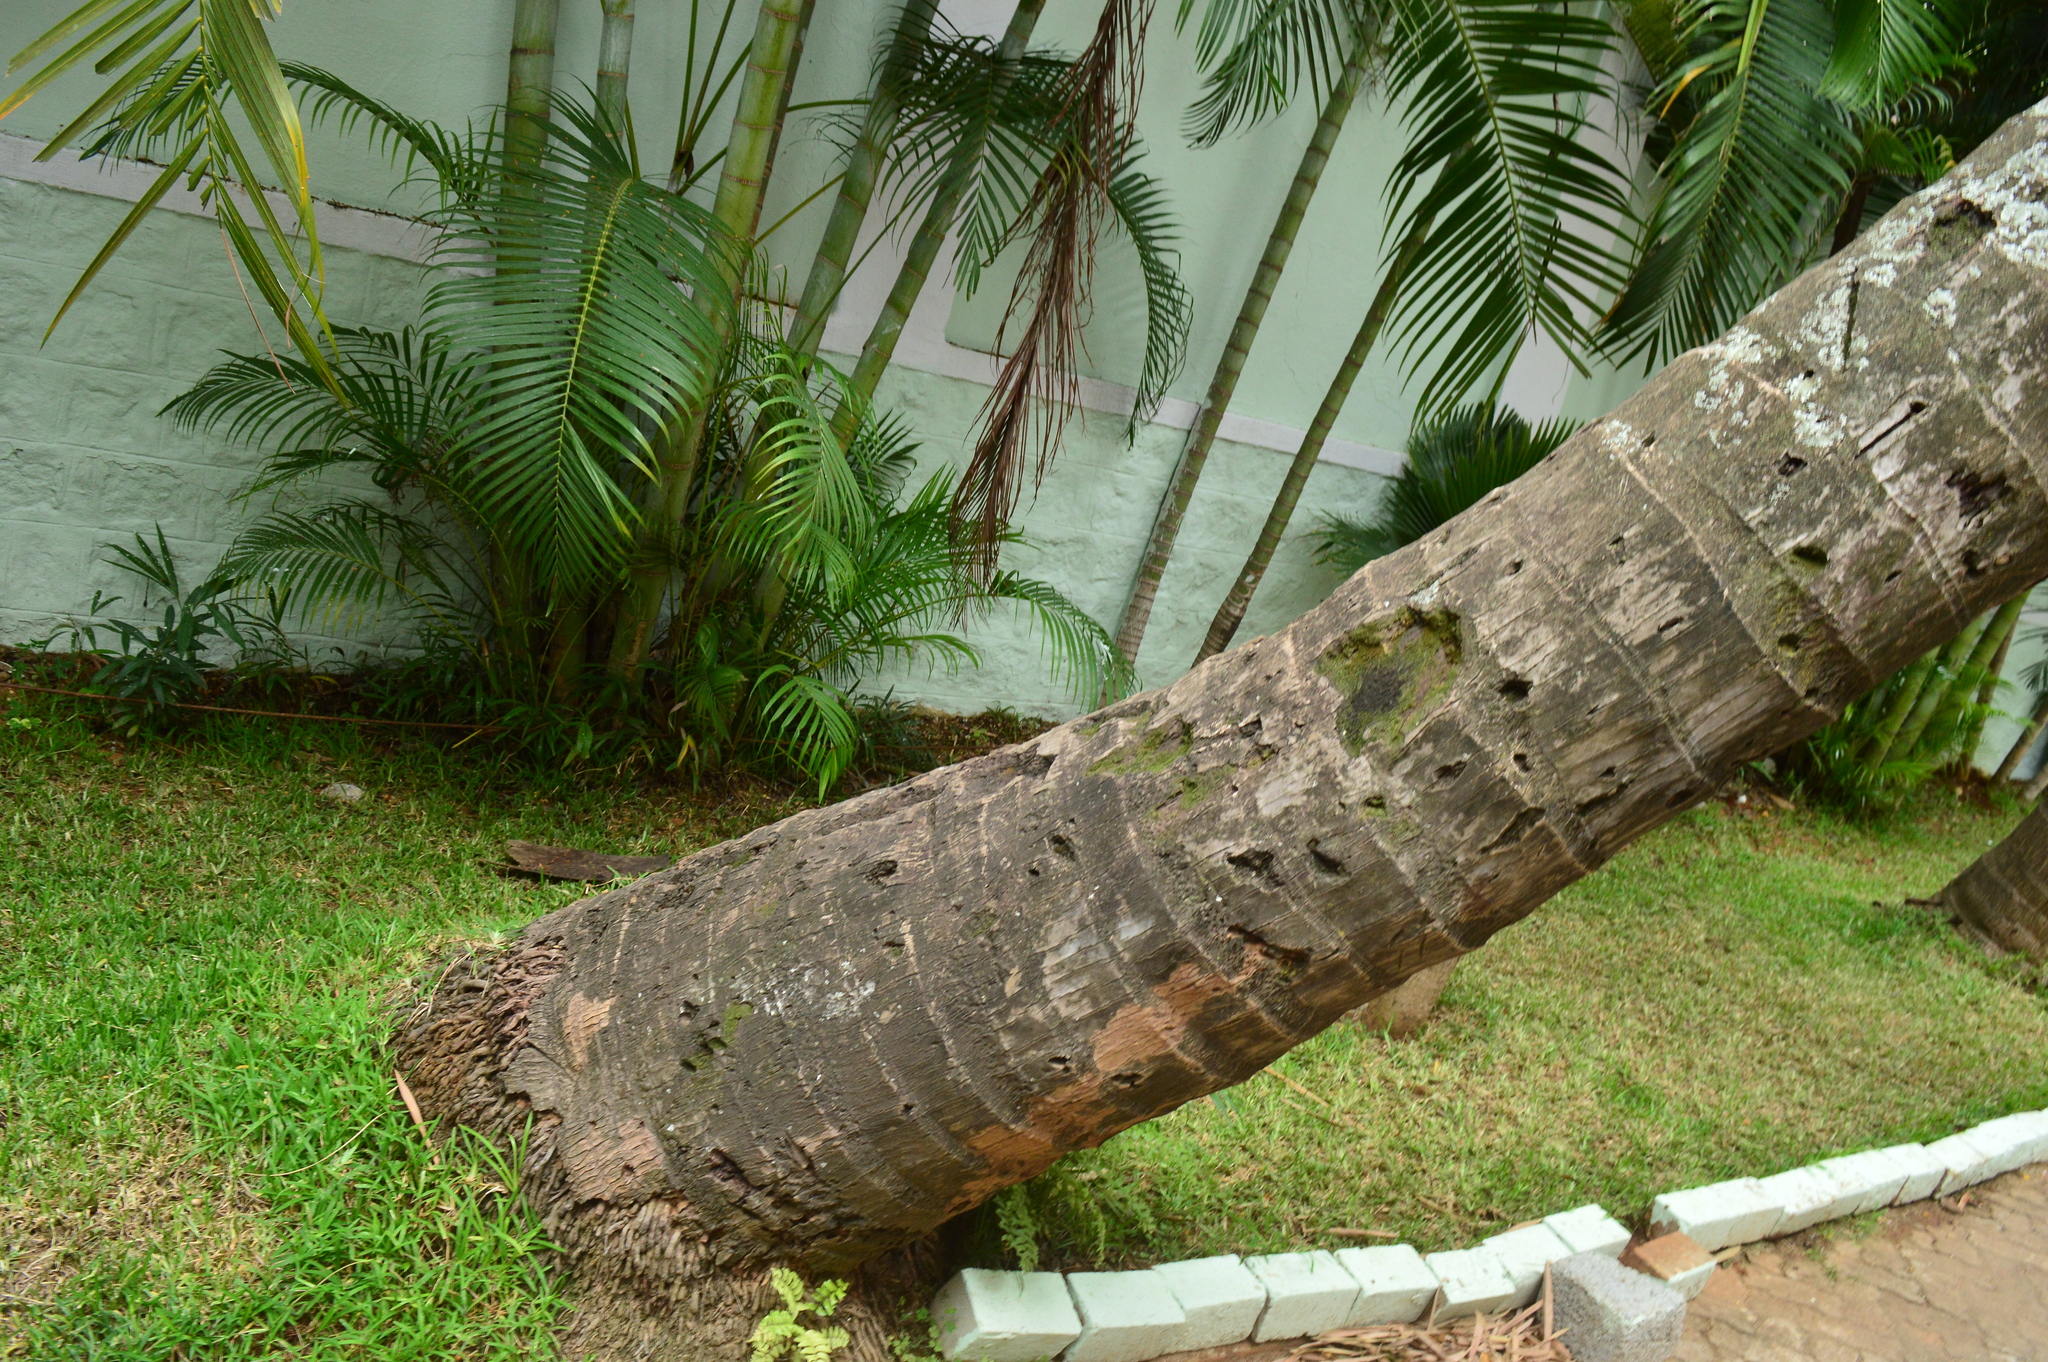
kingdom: Plantae
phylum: Tracheophyta
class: Liliopsida
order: Arecales
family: Arecaceae
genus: Cocos
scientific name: Cocos nucifera
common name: Coconut palm
